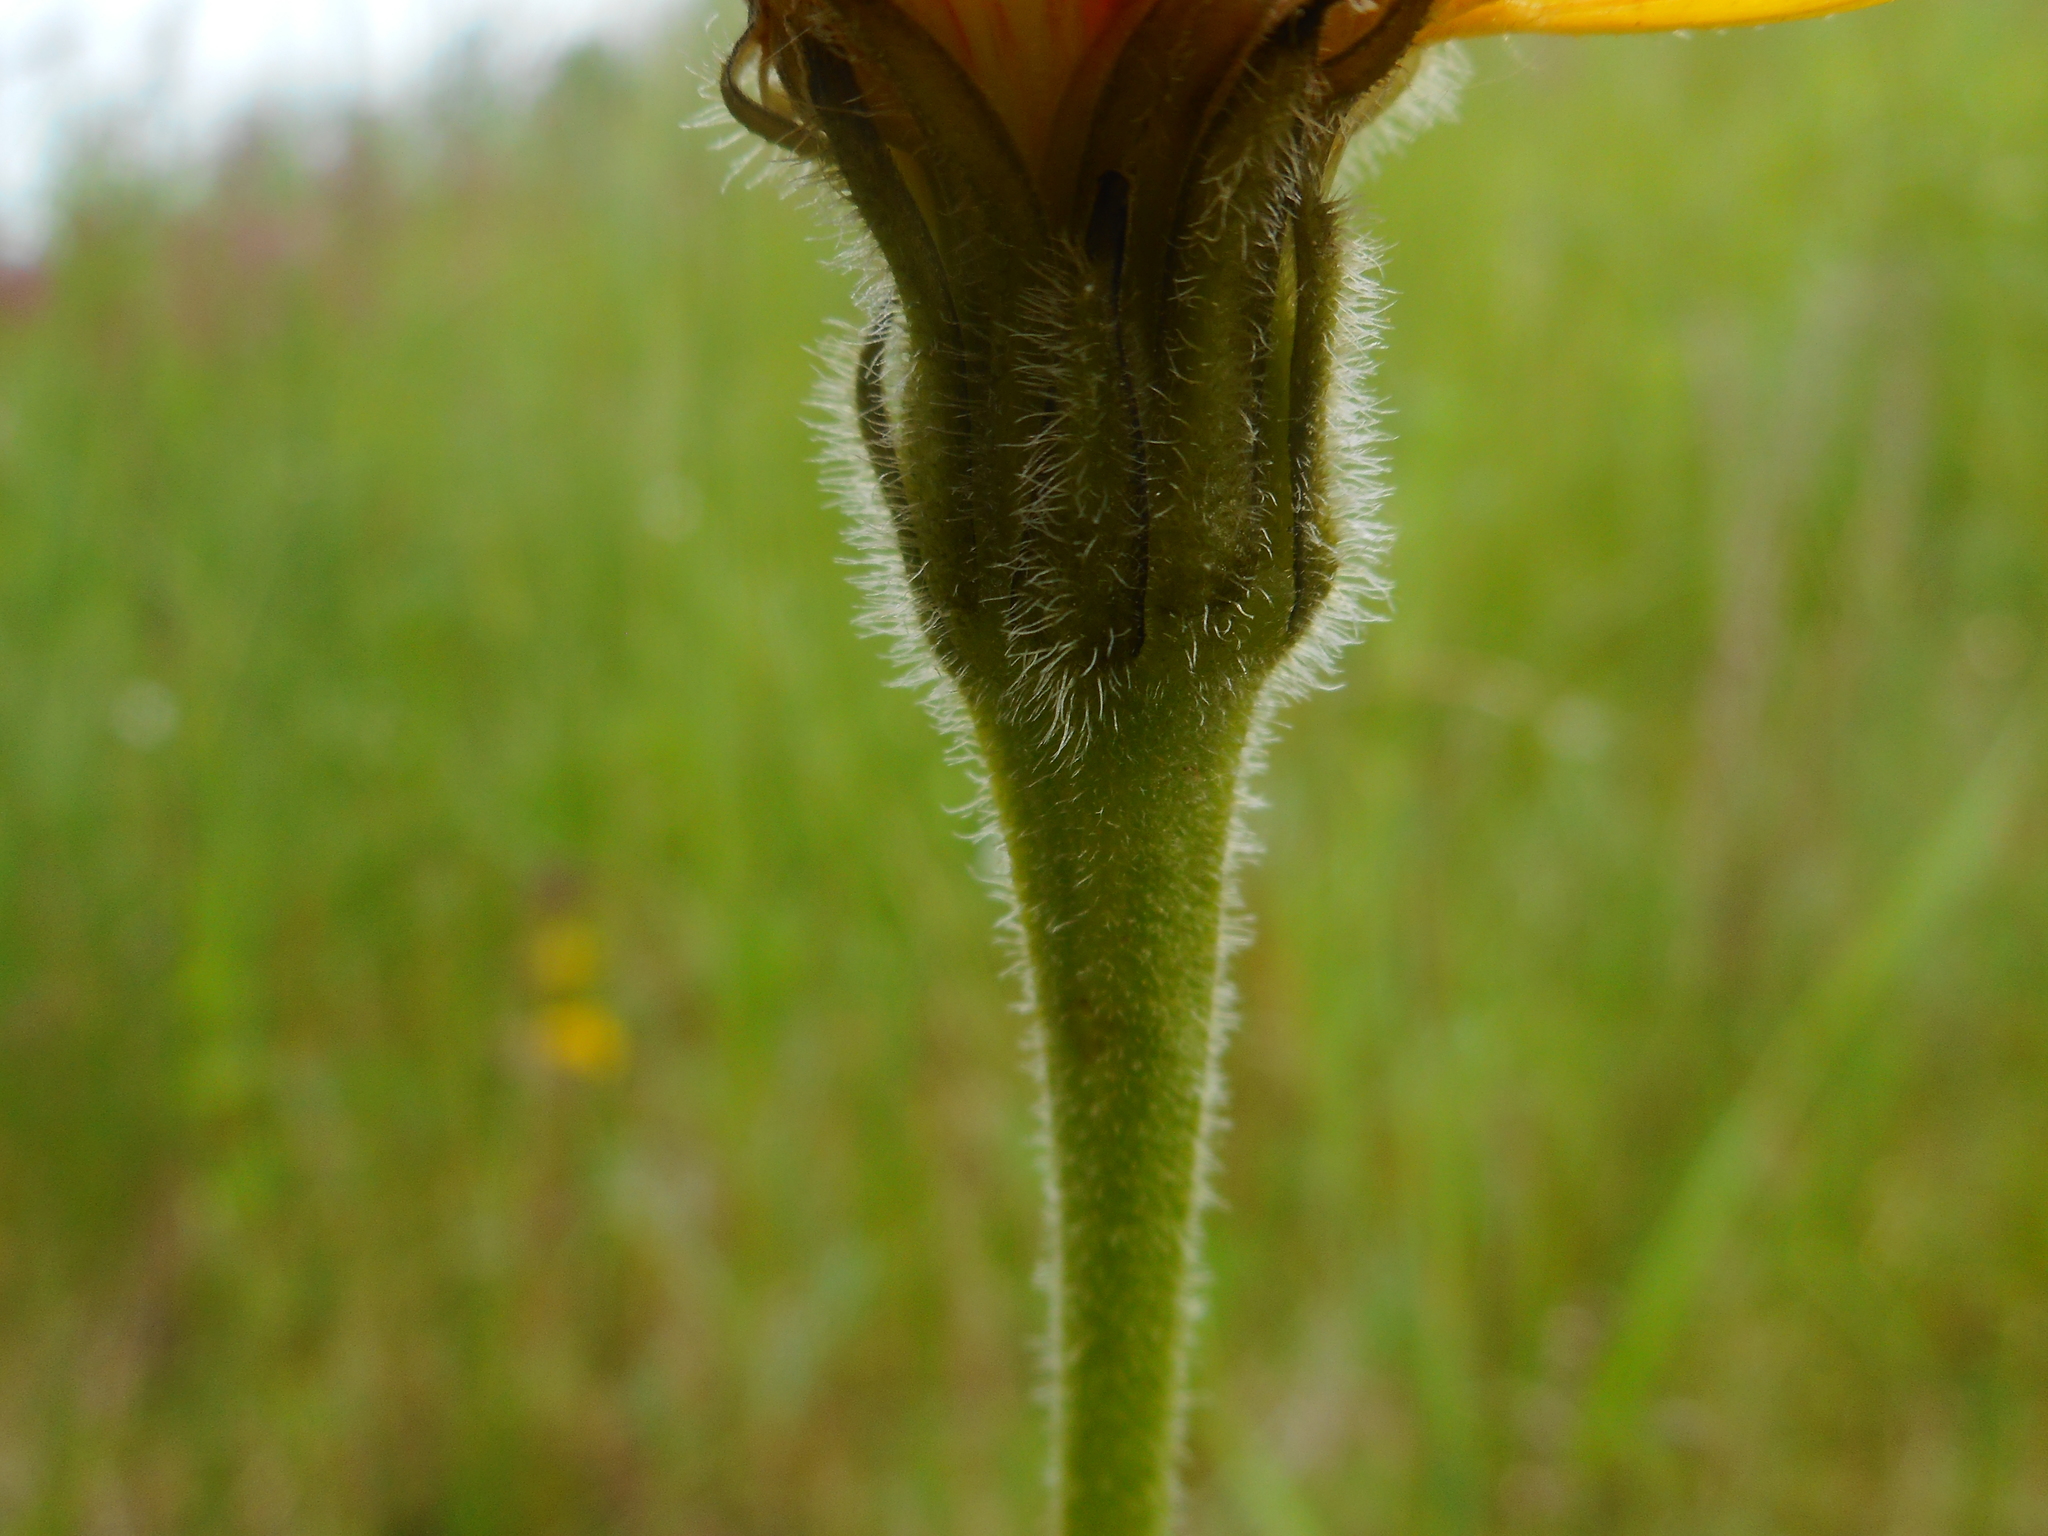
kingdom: Plantae
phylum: Tracheophyta
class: Magnoliopsida
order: Asterales
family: Asteraceae
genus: Leontodon
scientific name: Leontodon hispidus
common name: Rough hawkbit
